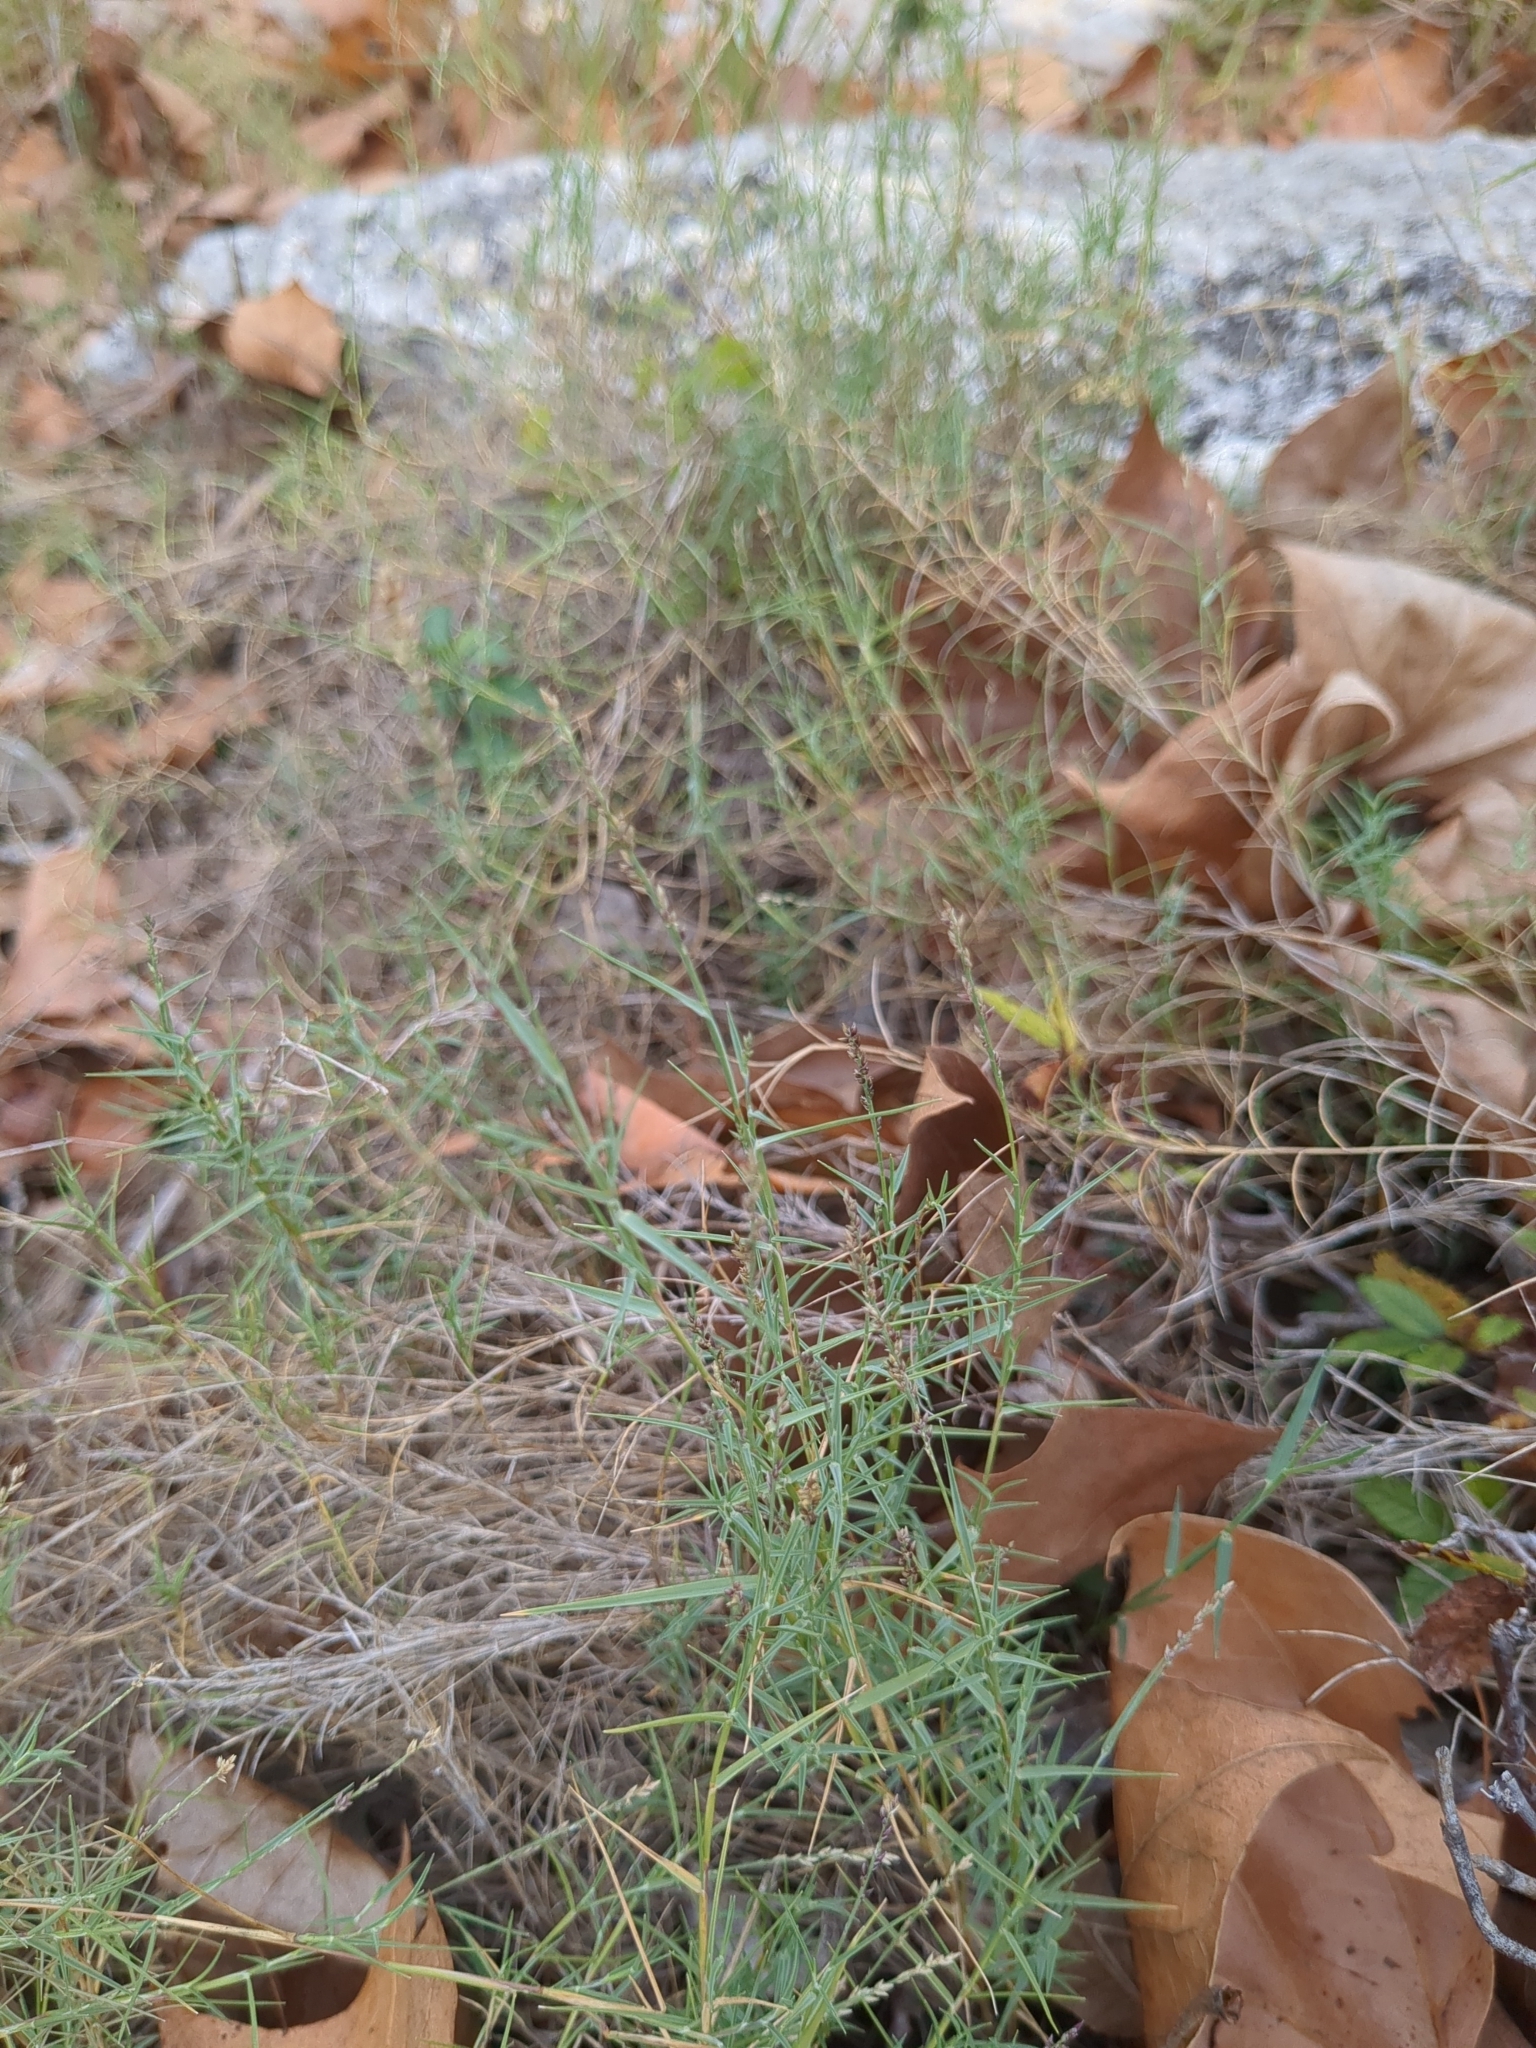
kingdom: Plantae
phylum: Tracheophyta
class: Liliopsida
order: Poales
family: Poaceae
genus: Muhlenbergia
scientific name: Muhlenbergia utilis
